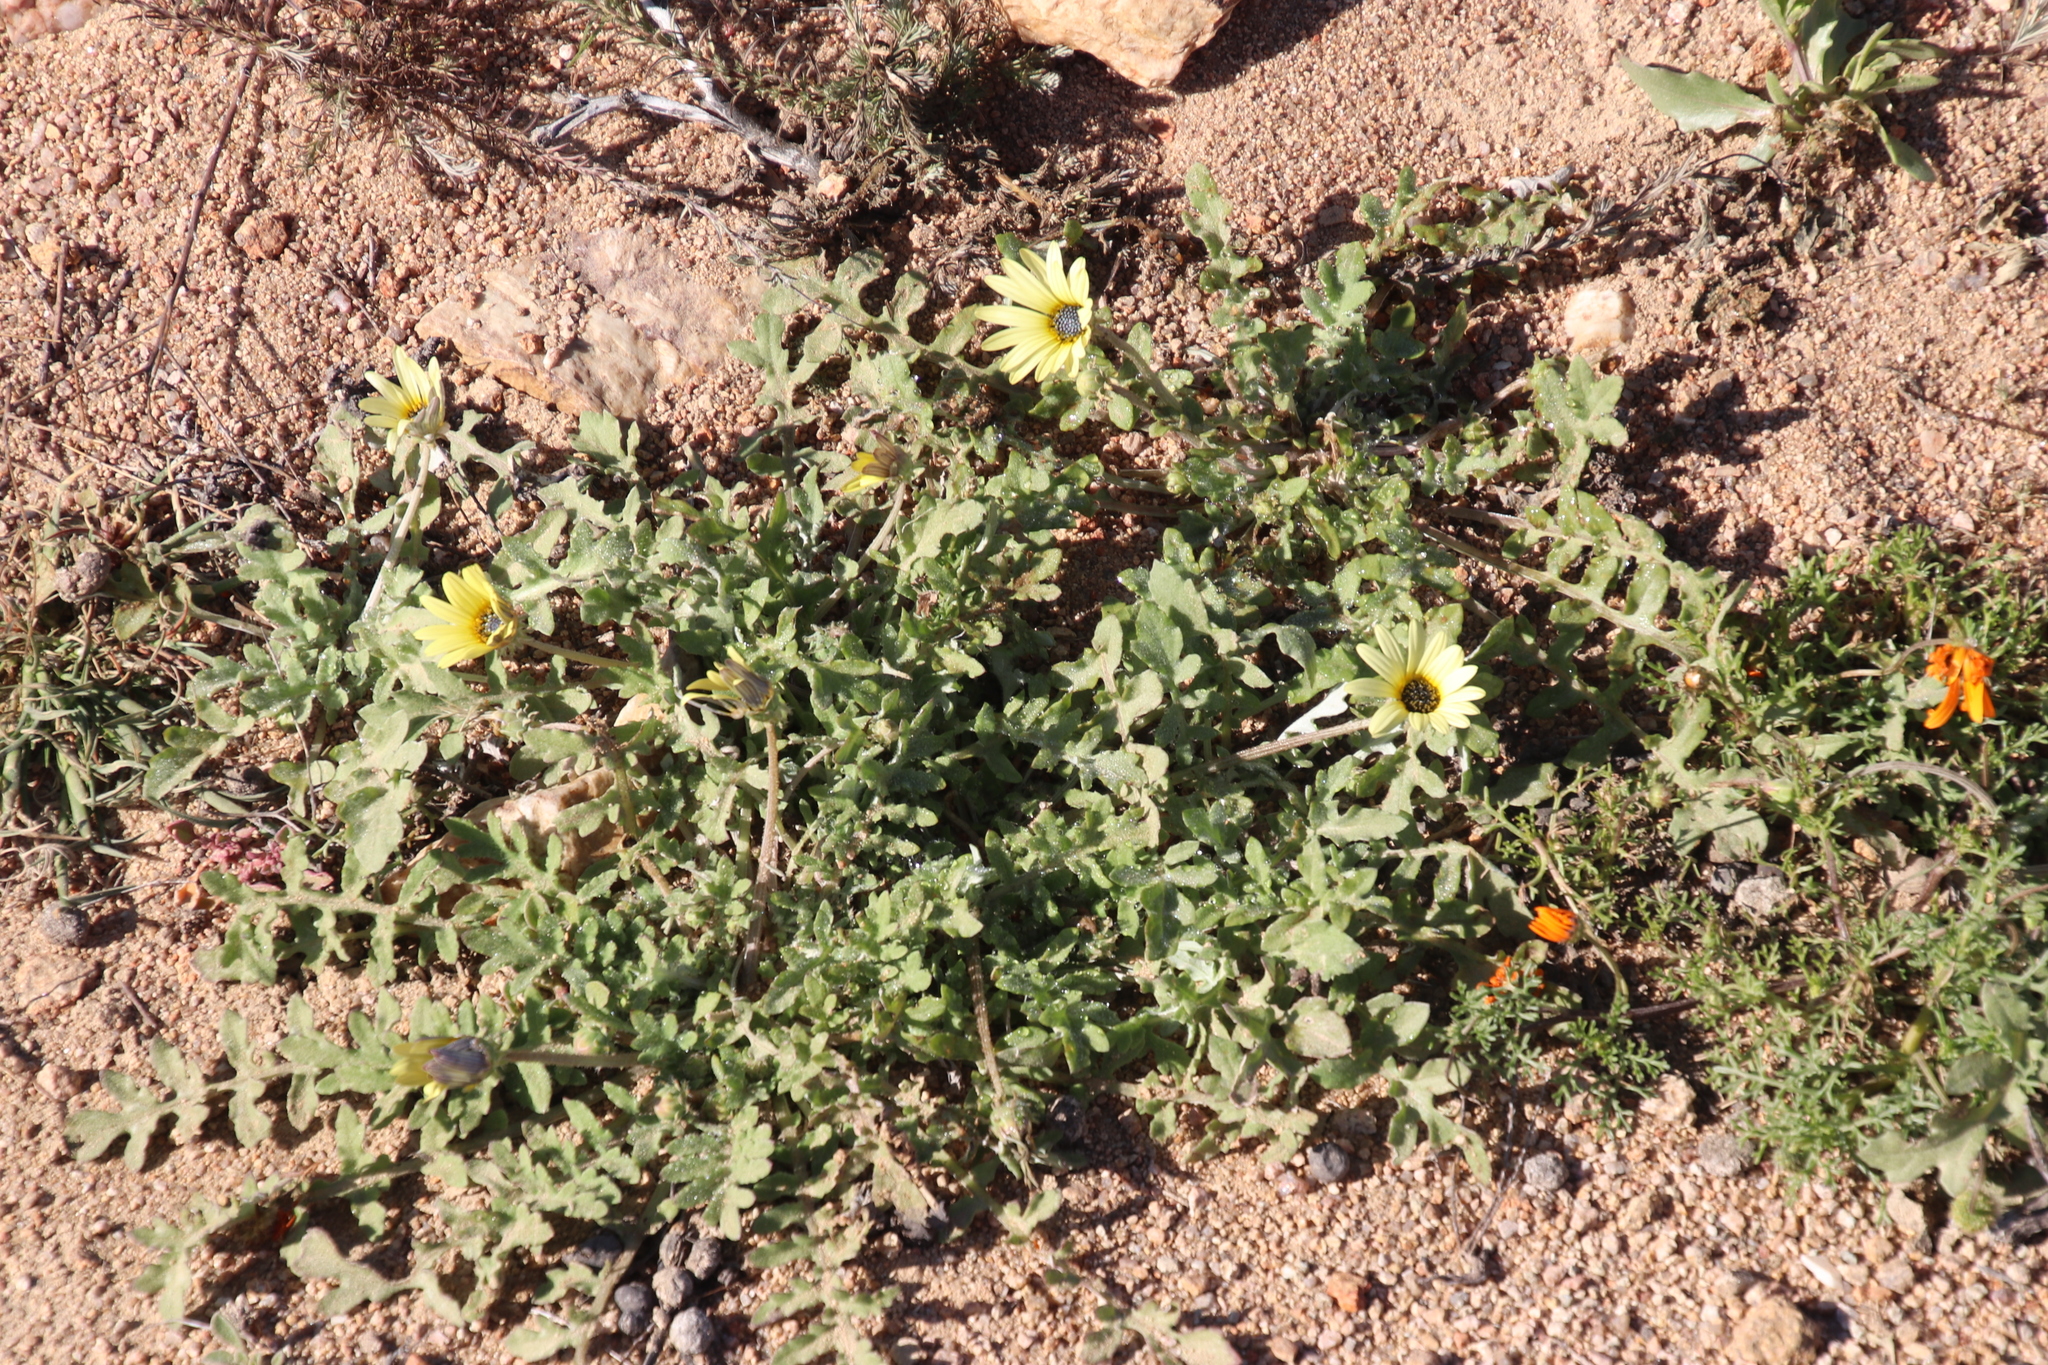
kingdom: Plantae
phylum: Tracheophyta
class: Magnoliopsida
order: Asterales
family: Asteraceae
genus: Arctotheca
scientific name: Arctotheca calendula
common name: Capeweed
